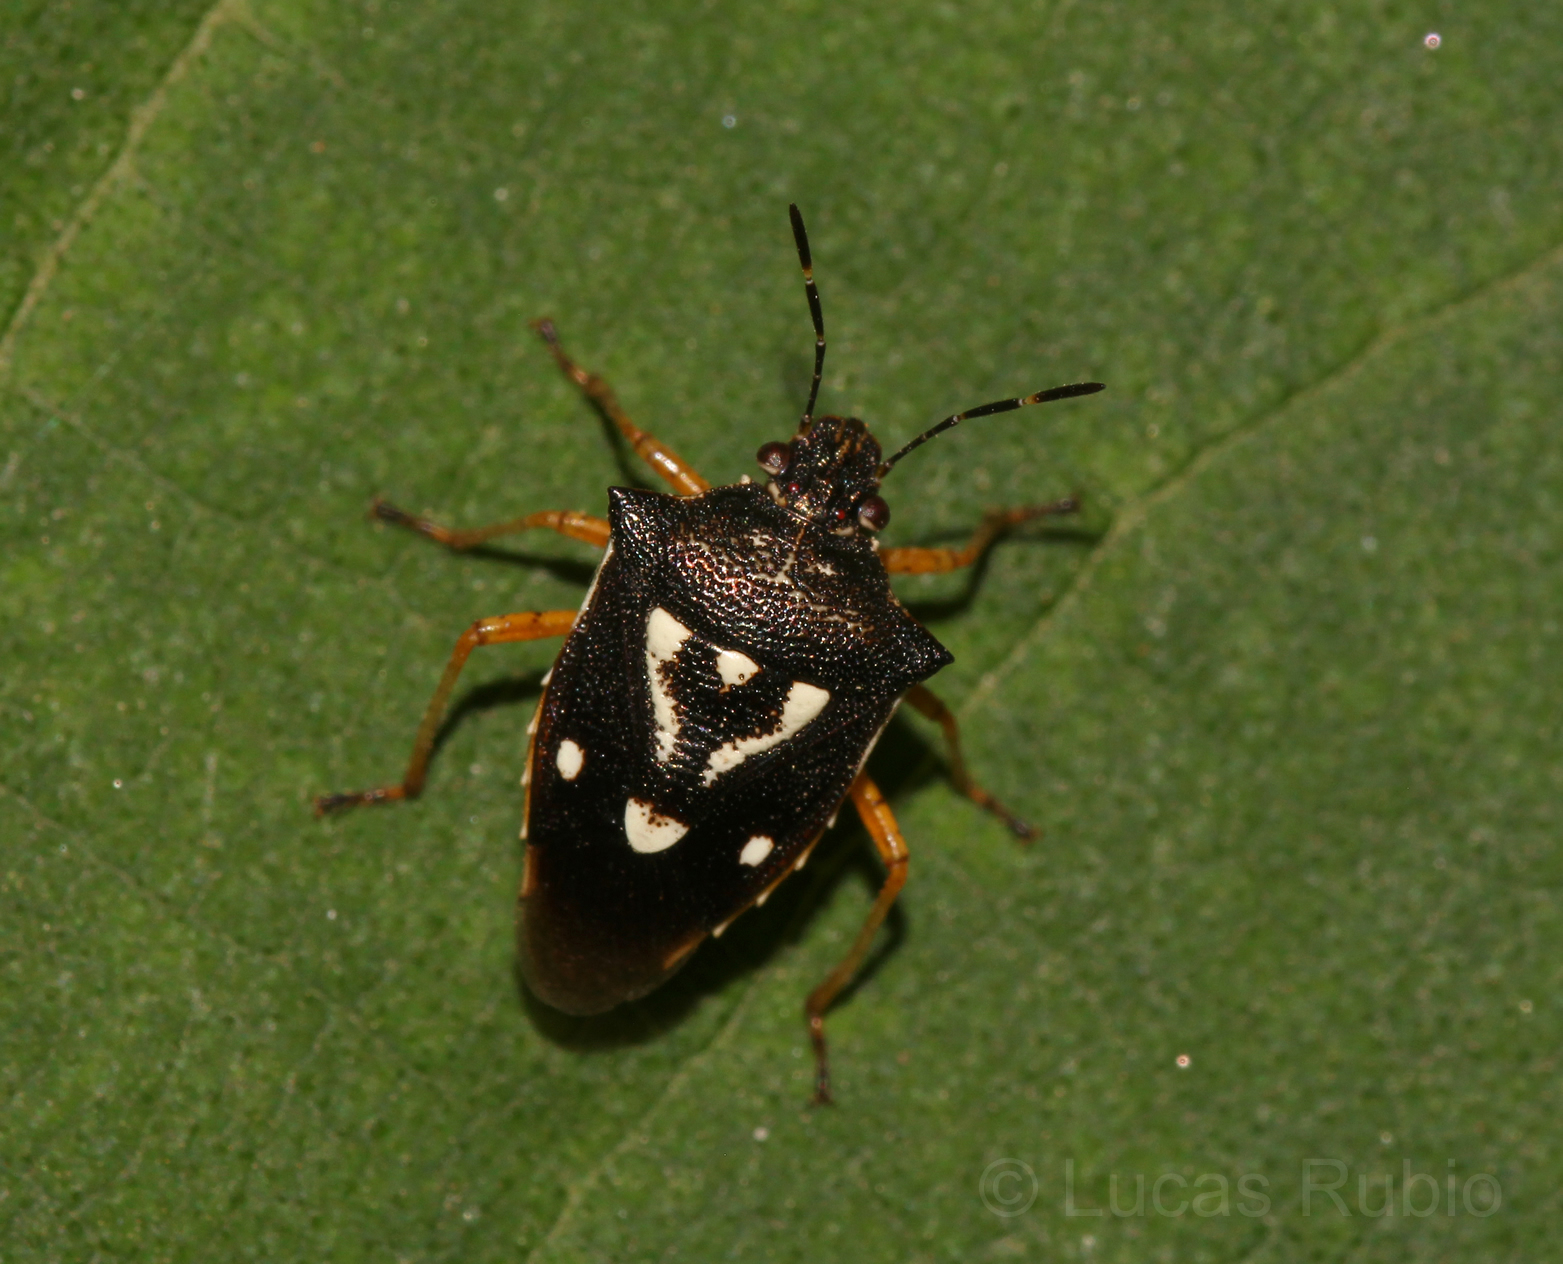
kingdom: Animalia
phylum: Arthropoda
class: Insecta
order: Hemiptera
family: Pentatomidae
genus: Mormidea
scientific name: Mormidea v-luteum
